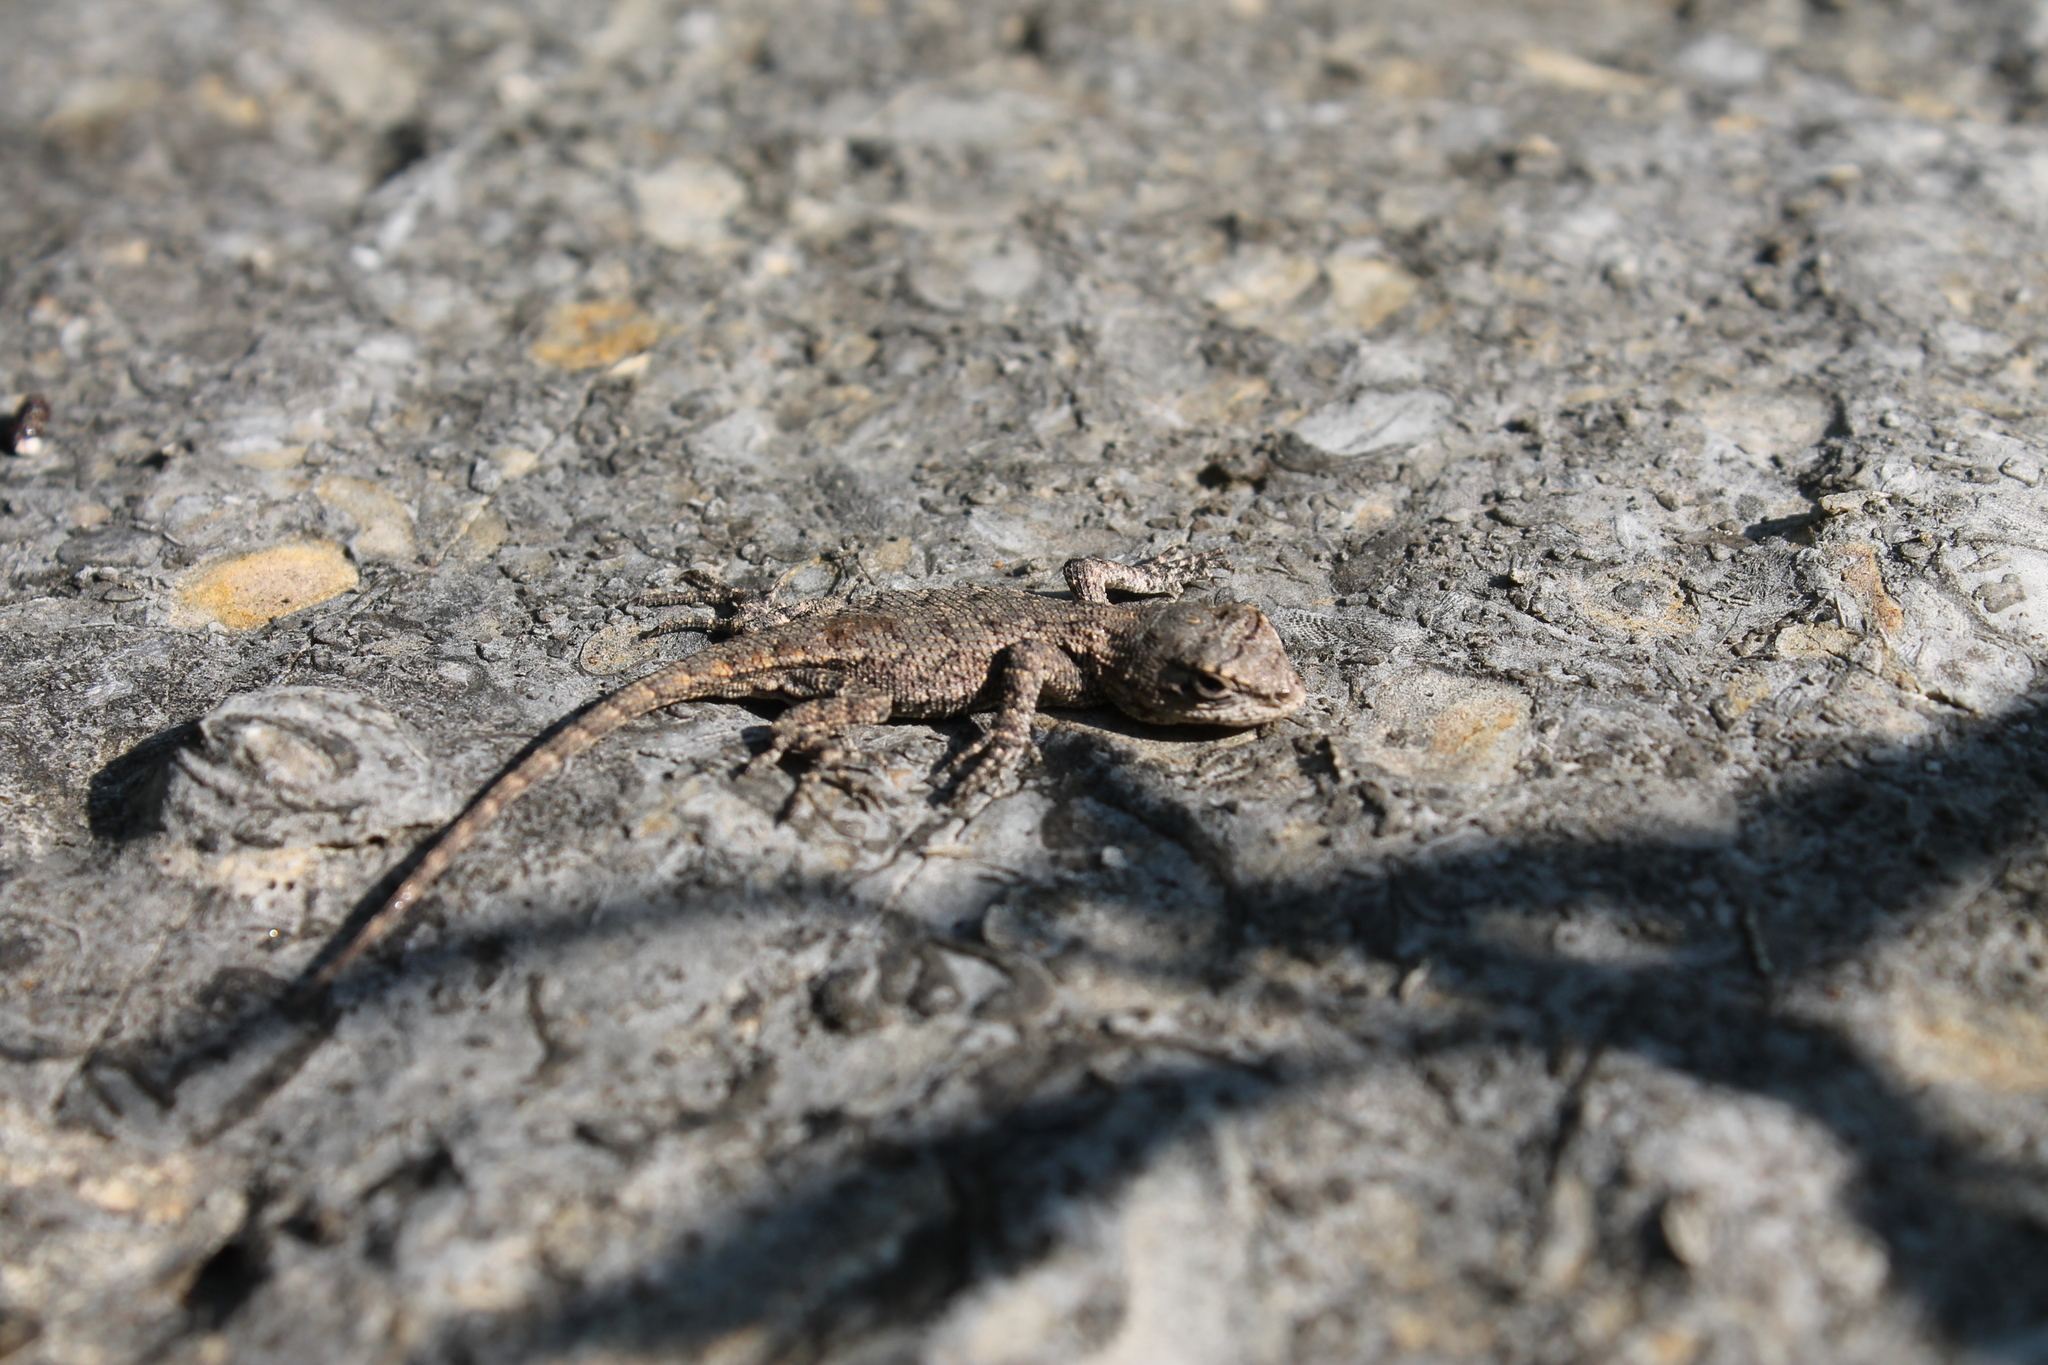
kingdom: Animalia
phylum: Chordata
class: Squamata
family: Phrynosomatidae
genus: Sceloporus
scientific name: Sceloporus undulatus
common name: Eastern fence lizard
